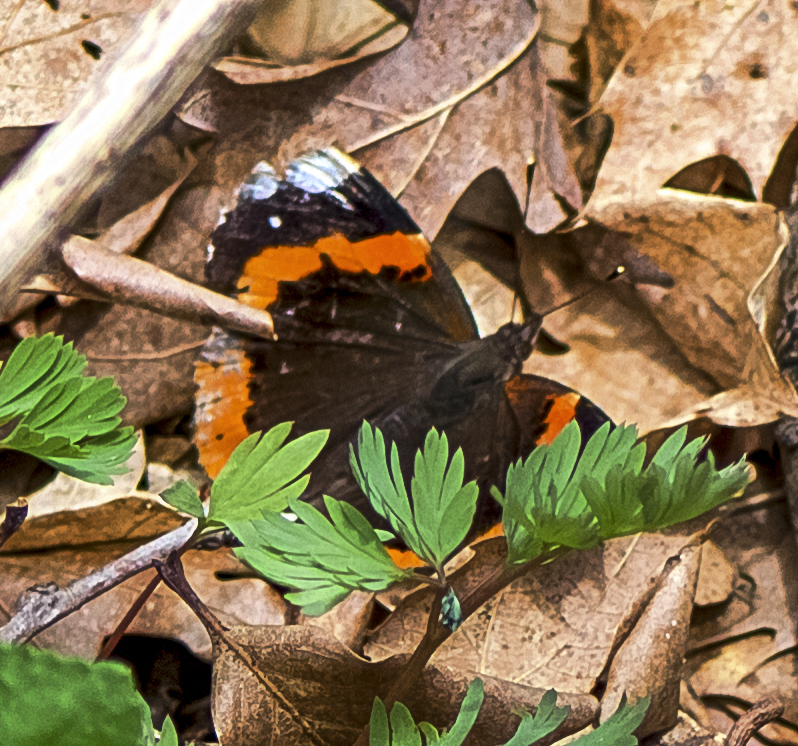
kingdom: Animalia
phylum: Arthropoda
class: Insecta
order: Lepidoptera
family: Nymphalidae
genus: Vanessa
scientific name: Vanessa atalanta
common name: Red admiral
